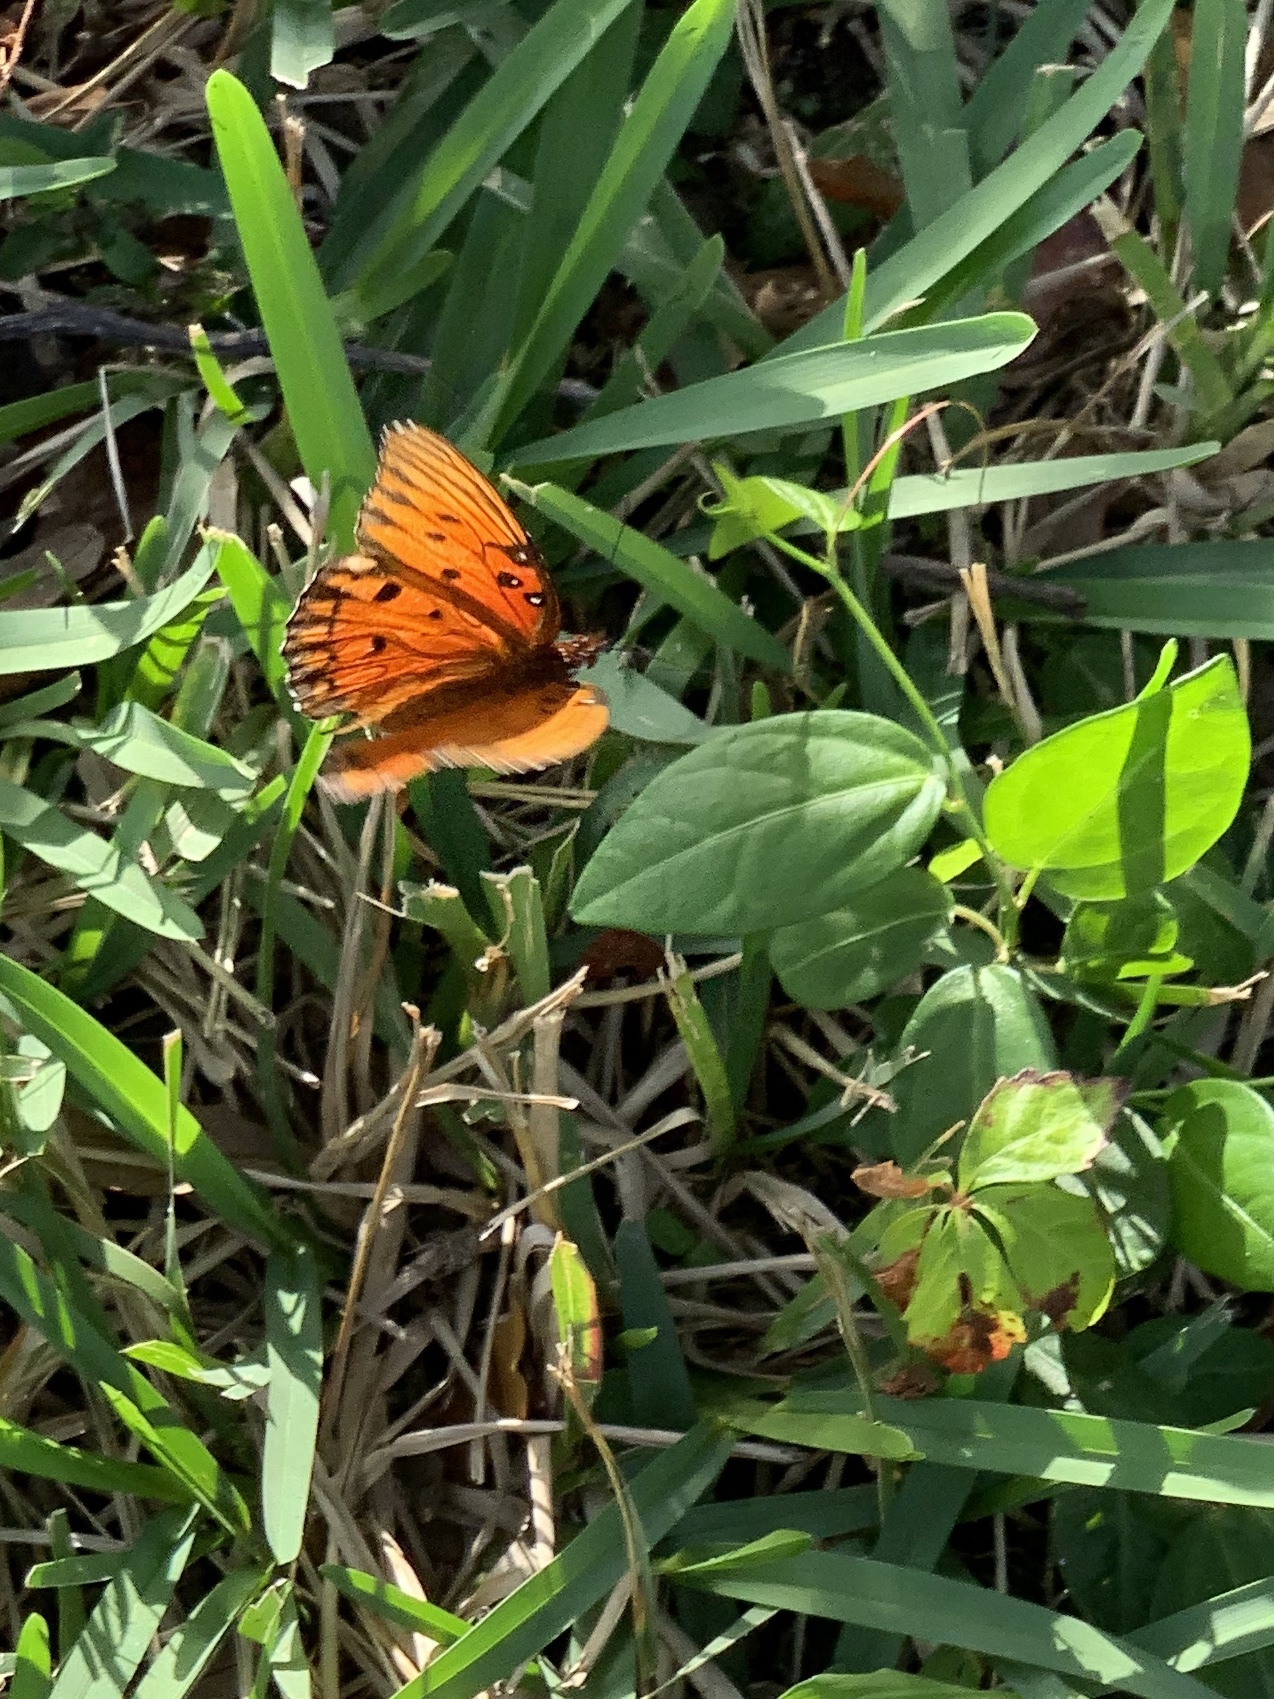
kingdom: Animalia
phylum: Arthropoda
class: Insecta
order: Lepidoptera
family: Nymphalidae
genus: Dione
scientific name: Dione vanillae
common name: Gulf fritillary
